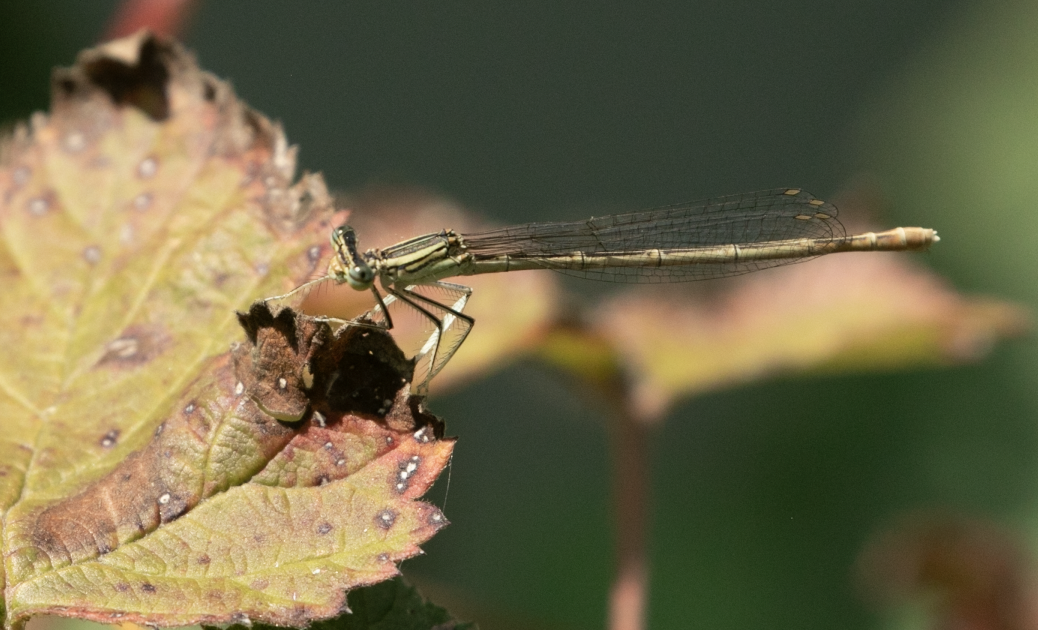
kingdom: Animalia
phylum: Arthropoda
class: Insecta
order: Odonata
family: Platycnemididae
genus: Platycnemis
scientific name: Platycnemis pennipes
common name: White-legged damselfly
